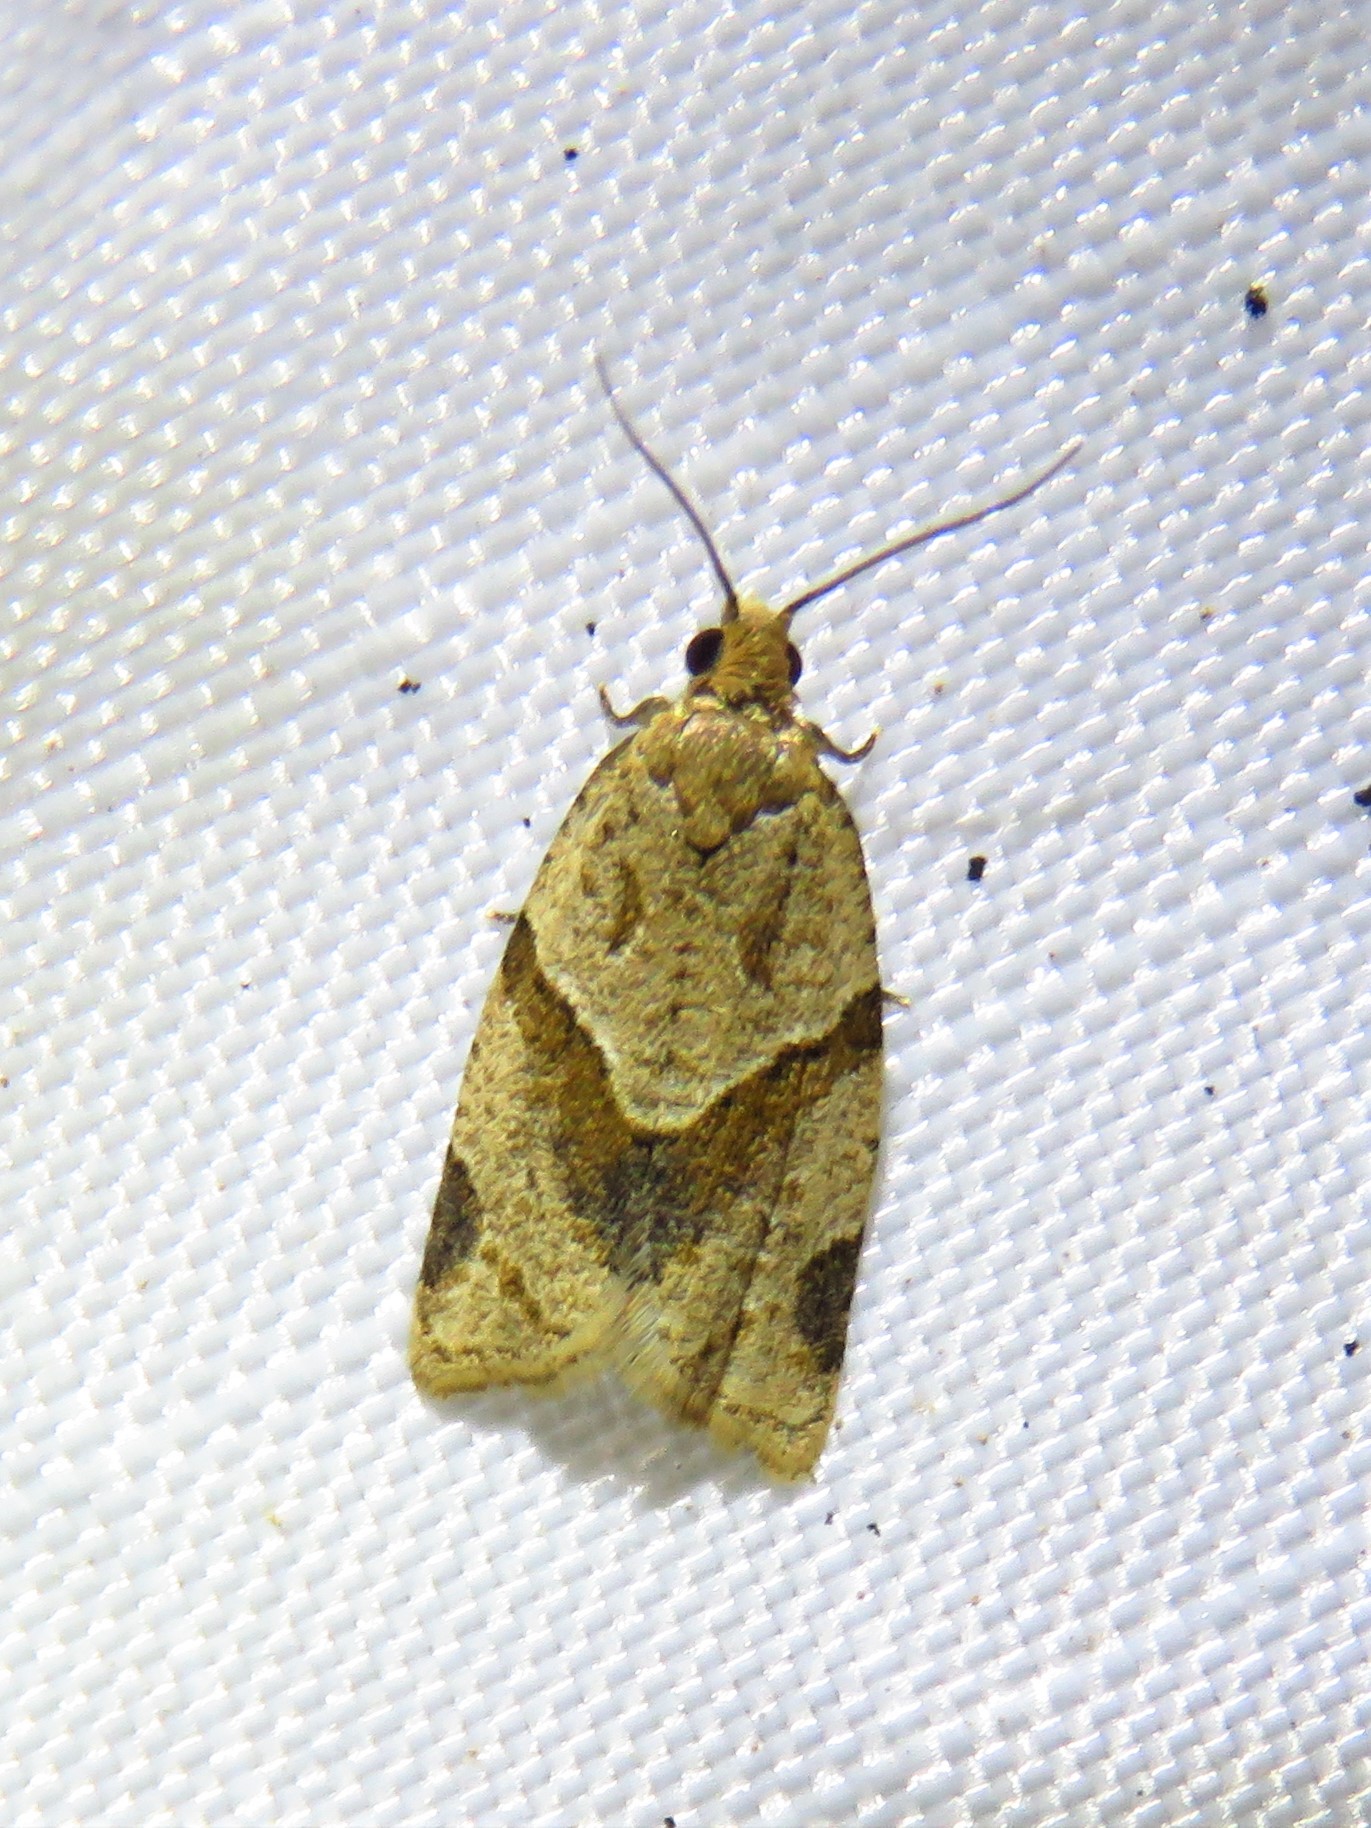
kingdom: Animalia
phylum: Arthropoda
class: Insecta
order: Lepidoptera
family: Tortricidae
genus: Clepsis
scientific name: Clepsis peritana
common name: Garden tortrix
